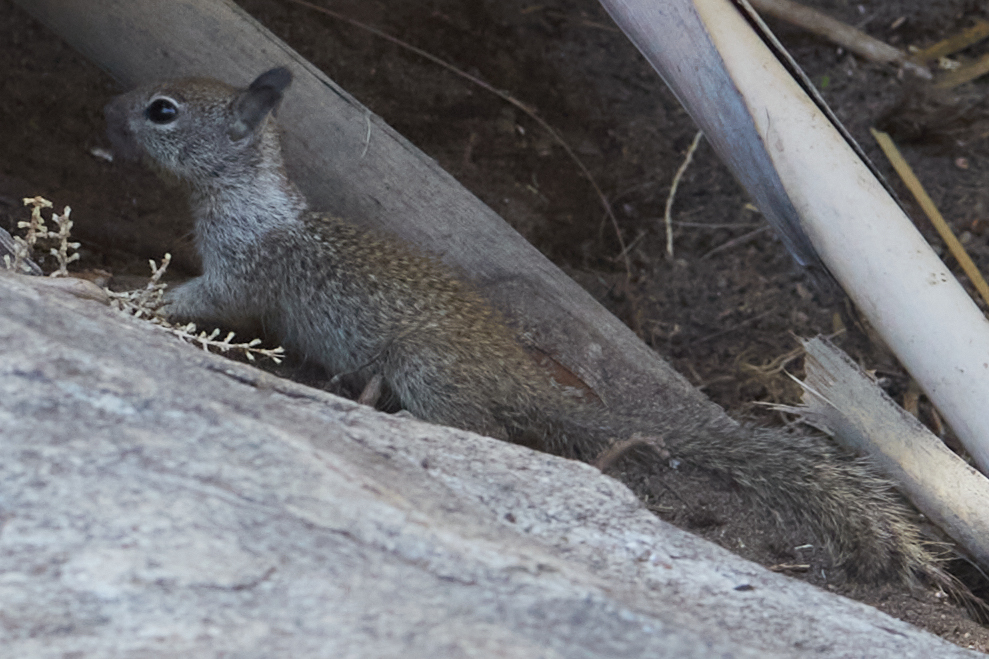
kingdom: Animalia
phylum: Chordata
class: Mammalia
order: Rodentia
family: Sciuridae
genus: Otospermophilus
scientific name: Otospermophilus beecheyi
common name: California ground squirrel
